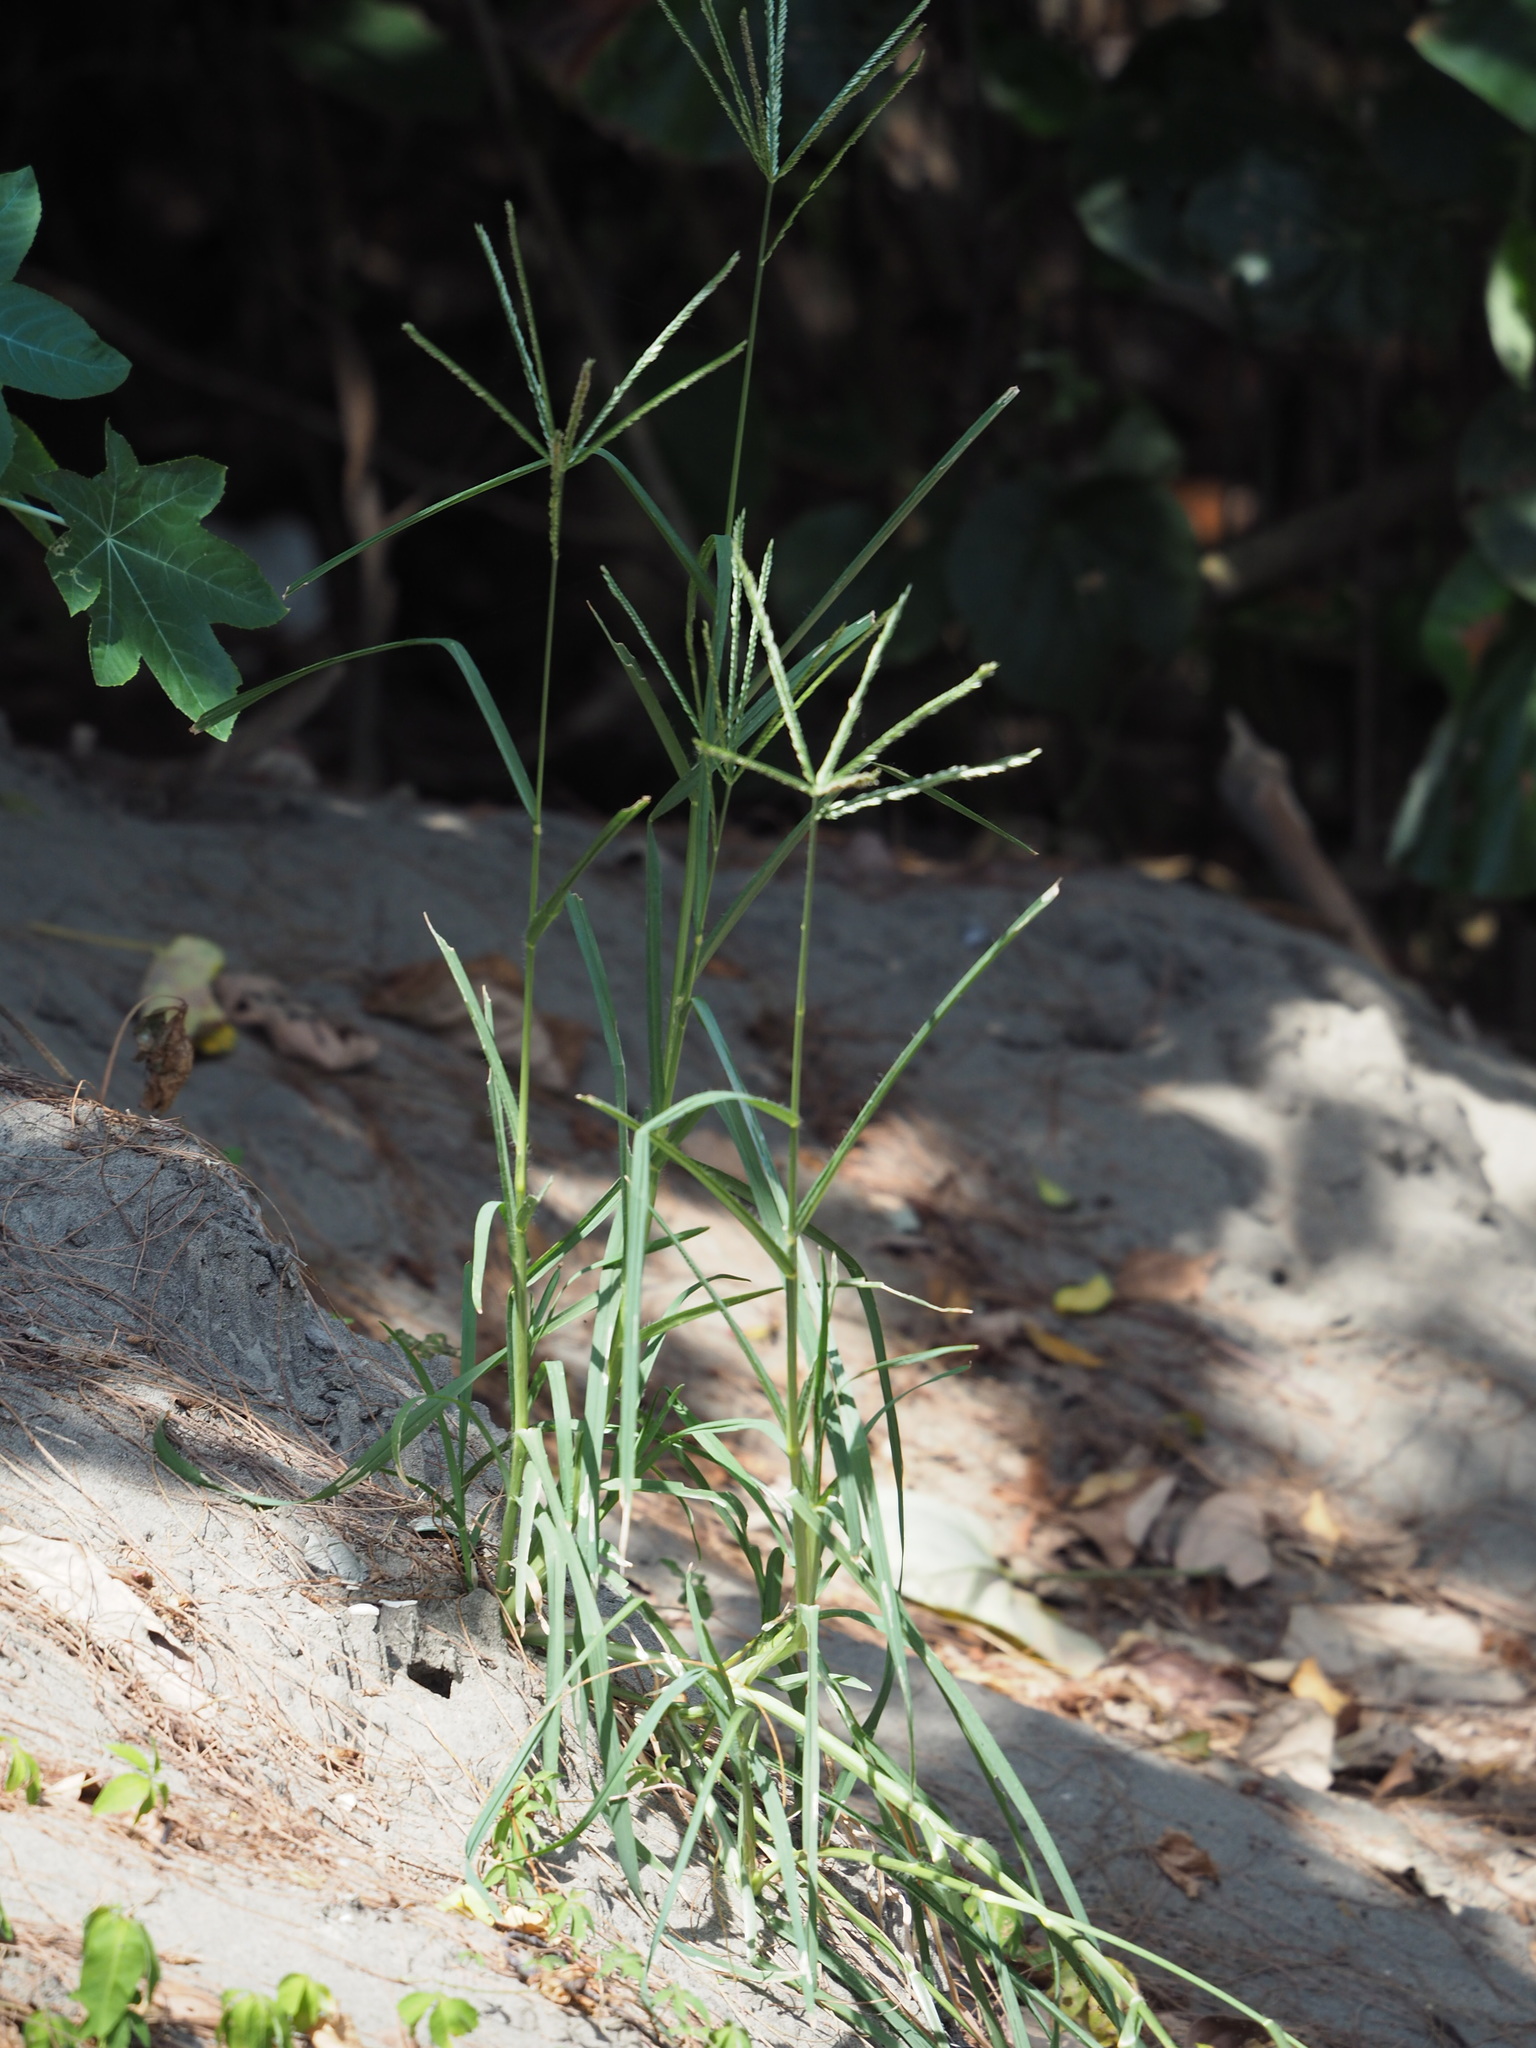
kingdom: Plantae
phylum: Tracheophyta
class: Liliopsida
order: Poales
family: Poaceae
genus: Eleusine
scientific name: Eleusine indica
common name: Yard-grass
